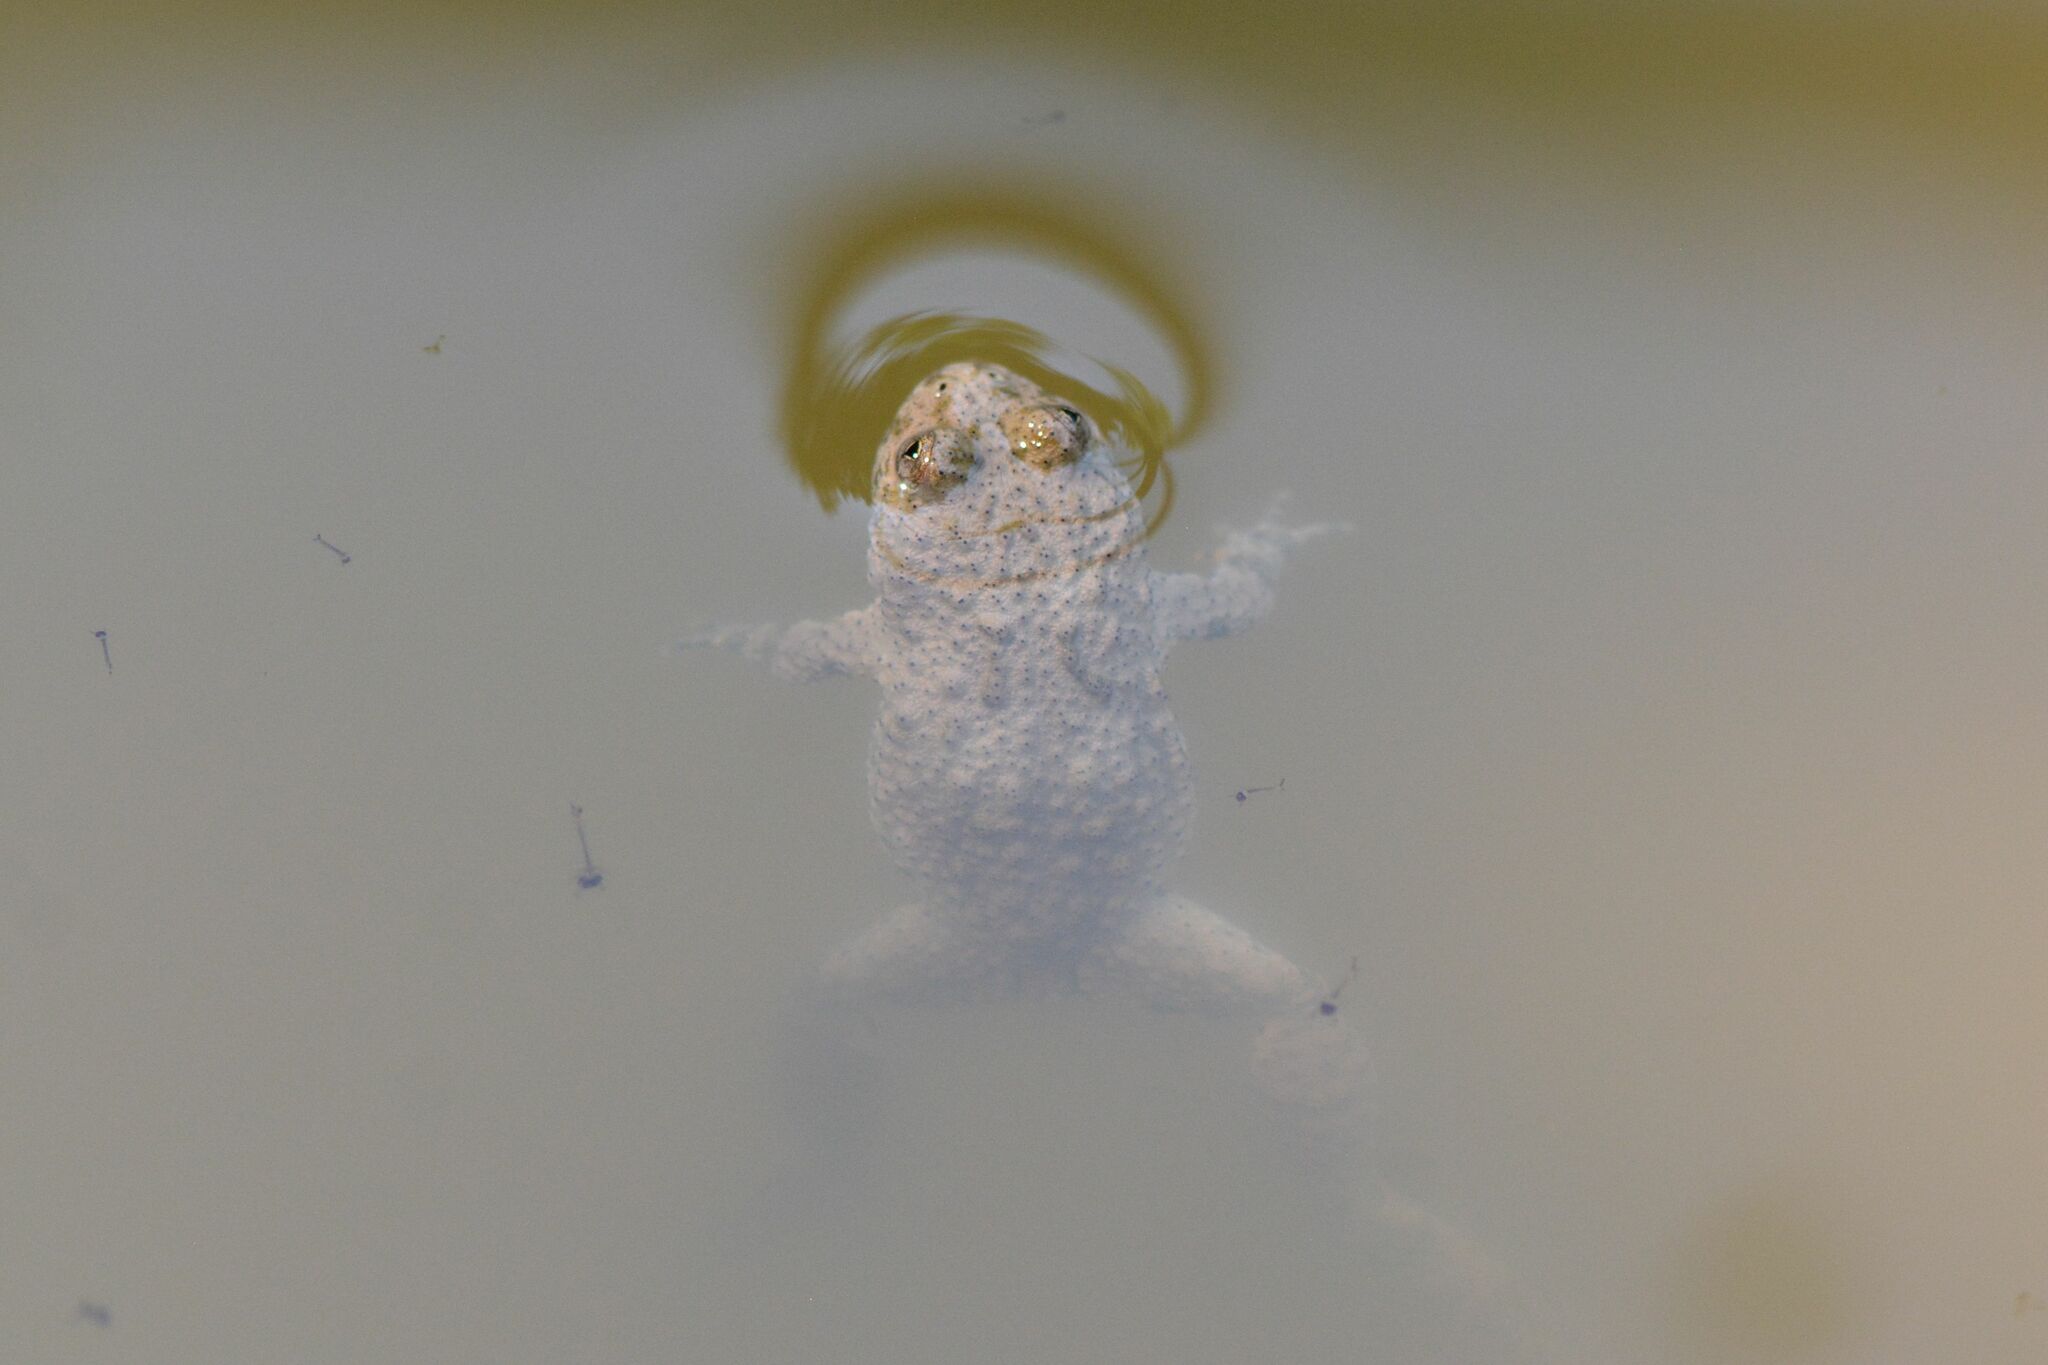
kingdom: Animalia
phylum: Chordata
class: Amphibia
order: Anura
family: Bombinatoridae
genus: Bombina
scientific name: Bombina variegata
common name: Yellow-bellied toad
